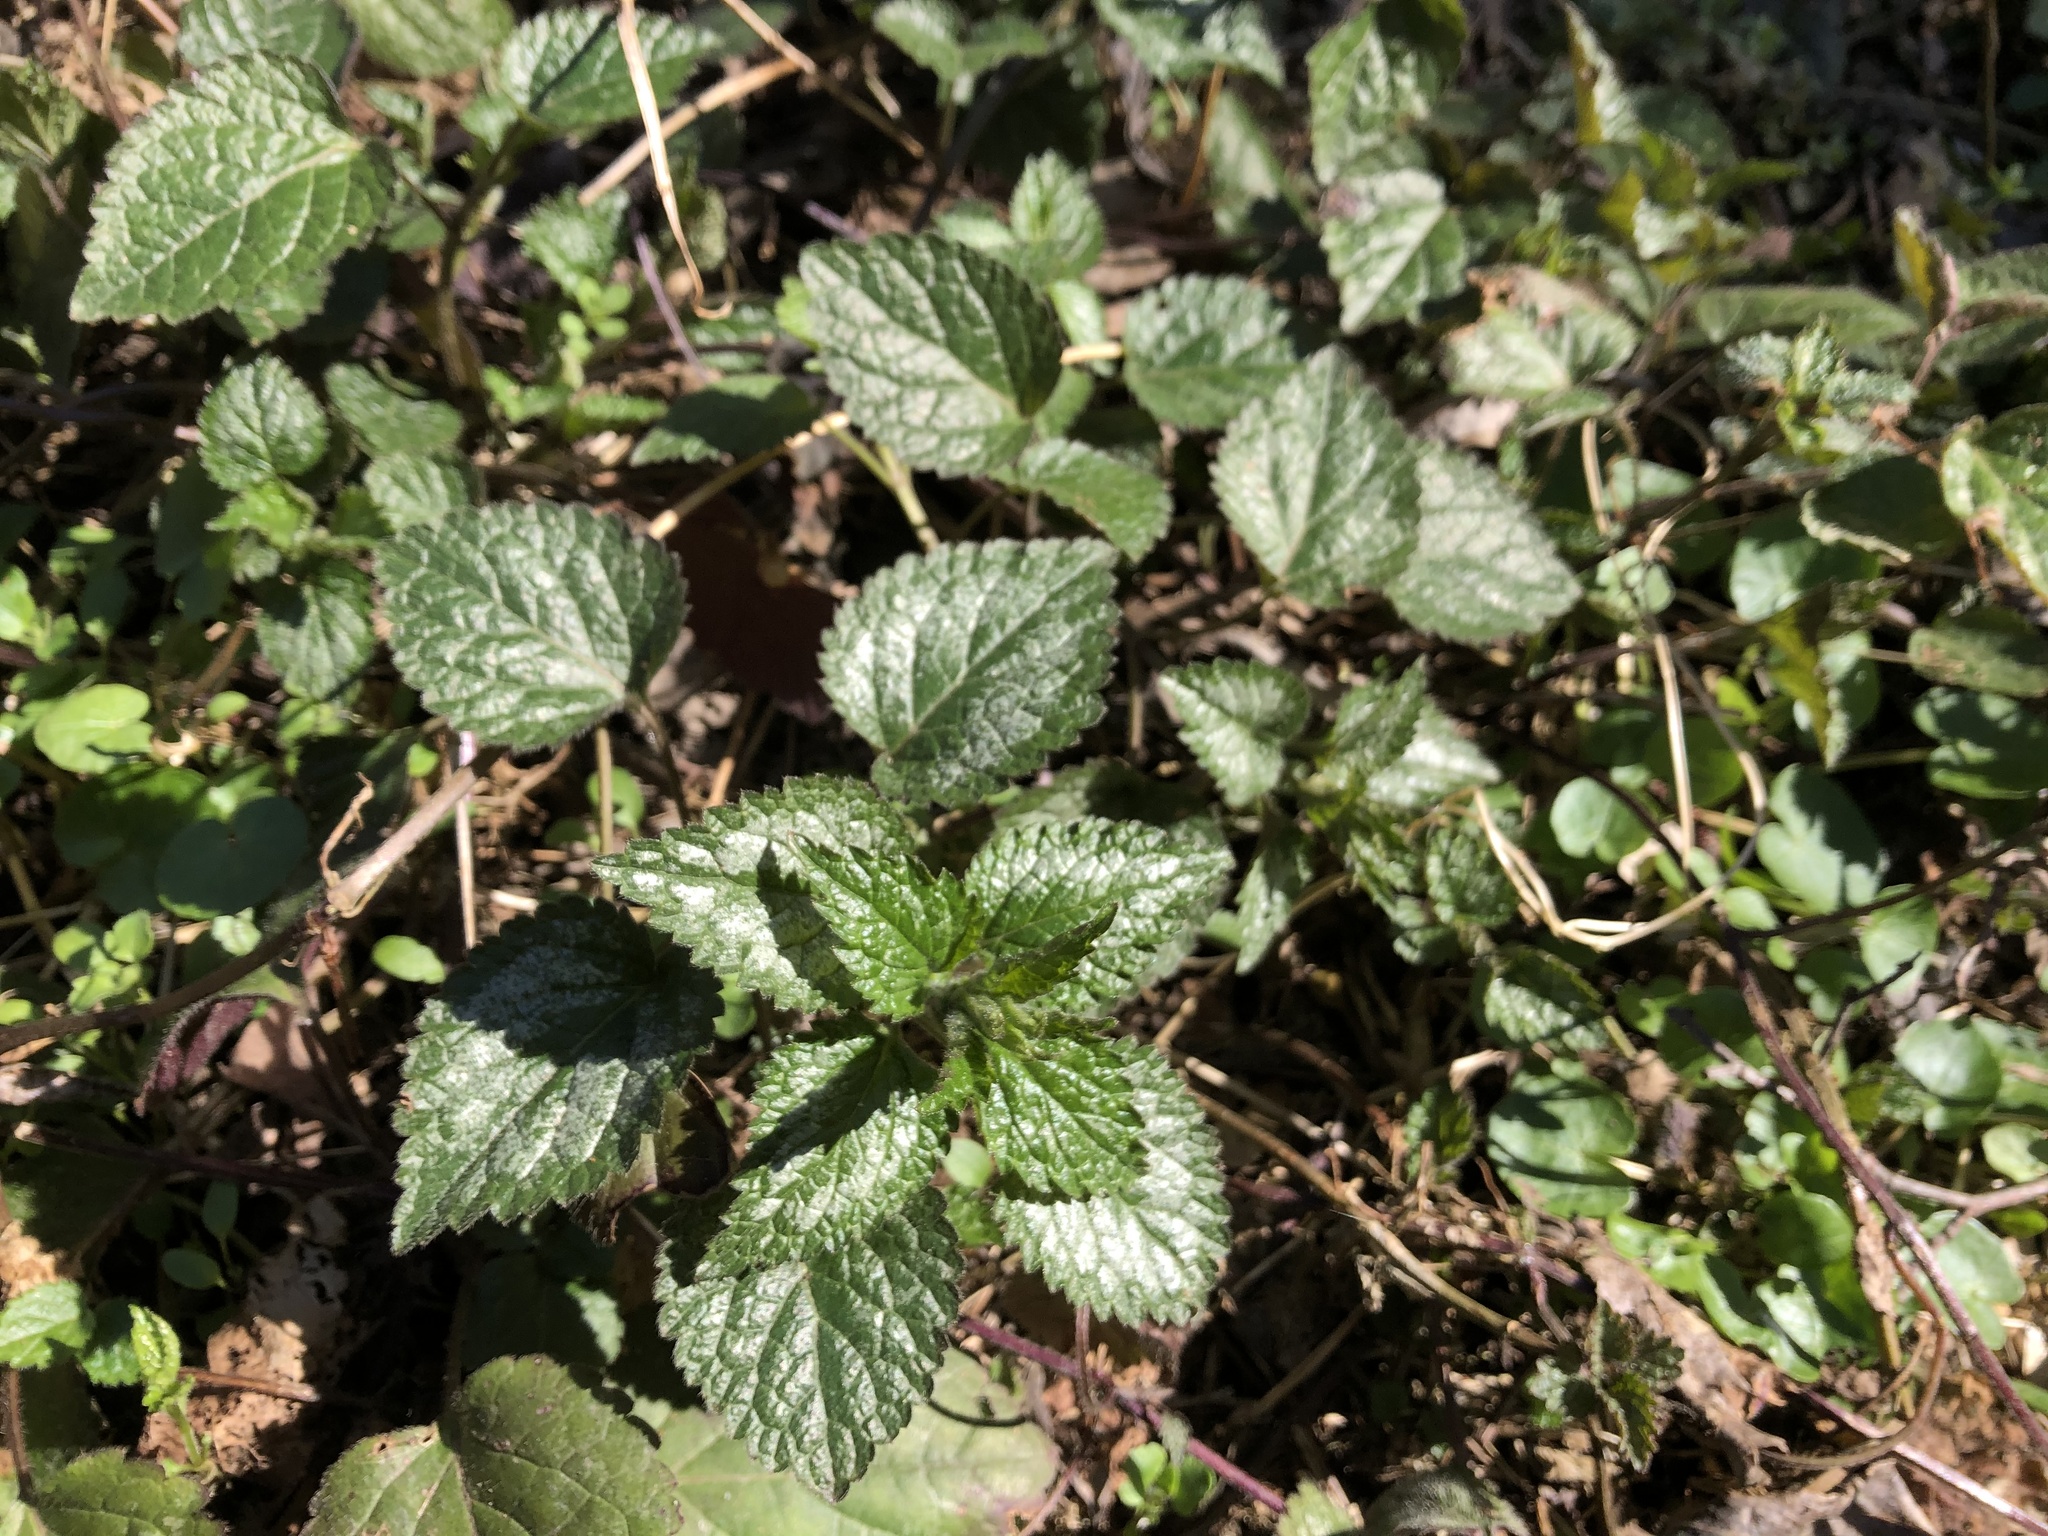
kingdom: Plantae
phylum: Tracheophyta
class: Magnoliopsida
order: Lamiales
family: Lamiaceae
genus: Lamium
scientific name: Lamium galeobdolon
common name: Yellow archangel
